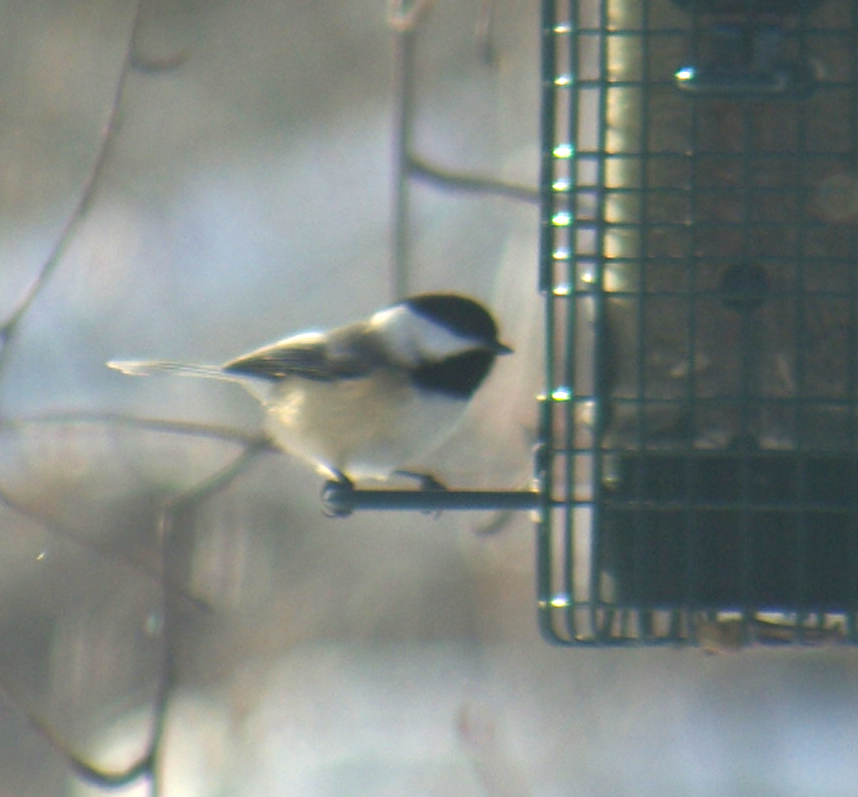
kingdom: Animalia
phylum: Chordata
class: Aves
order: Passeriformes
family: Paridae
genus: Poecile
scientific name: Poecile atricapillus
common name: Black-capped chickadee
